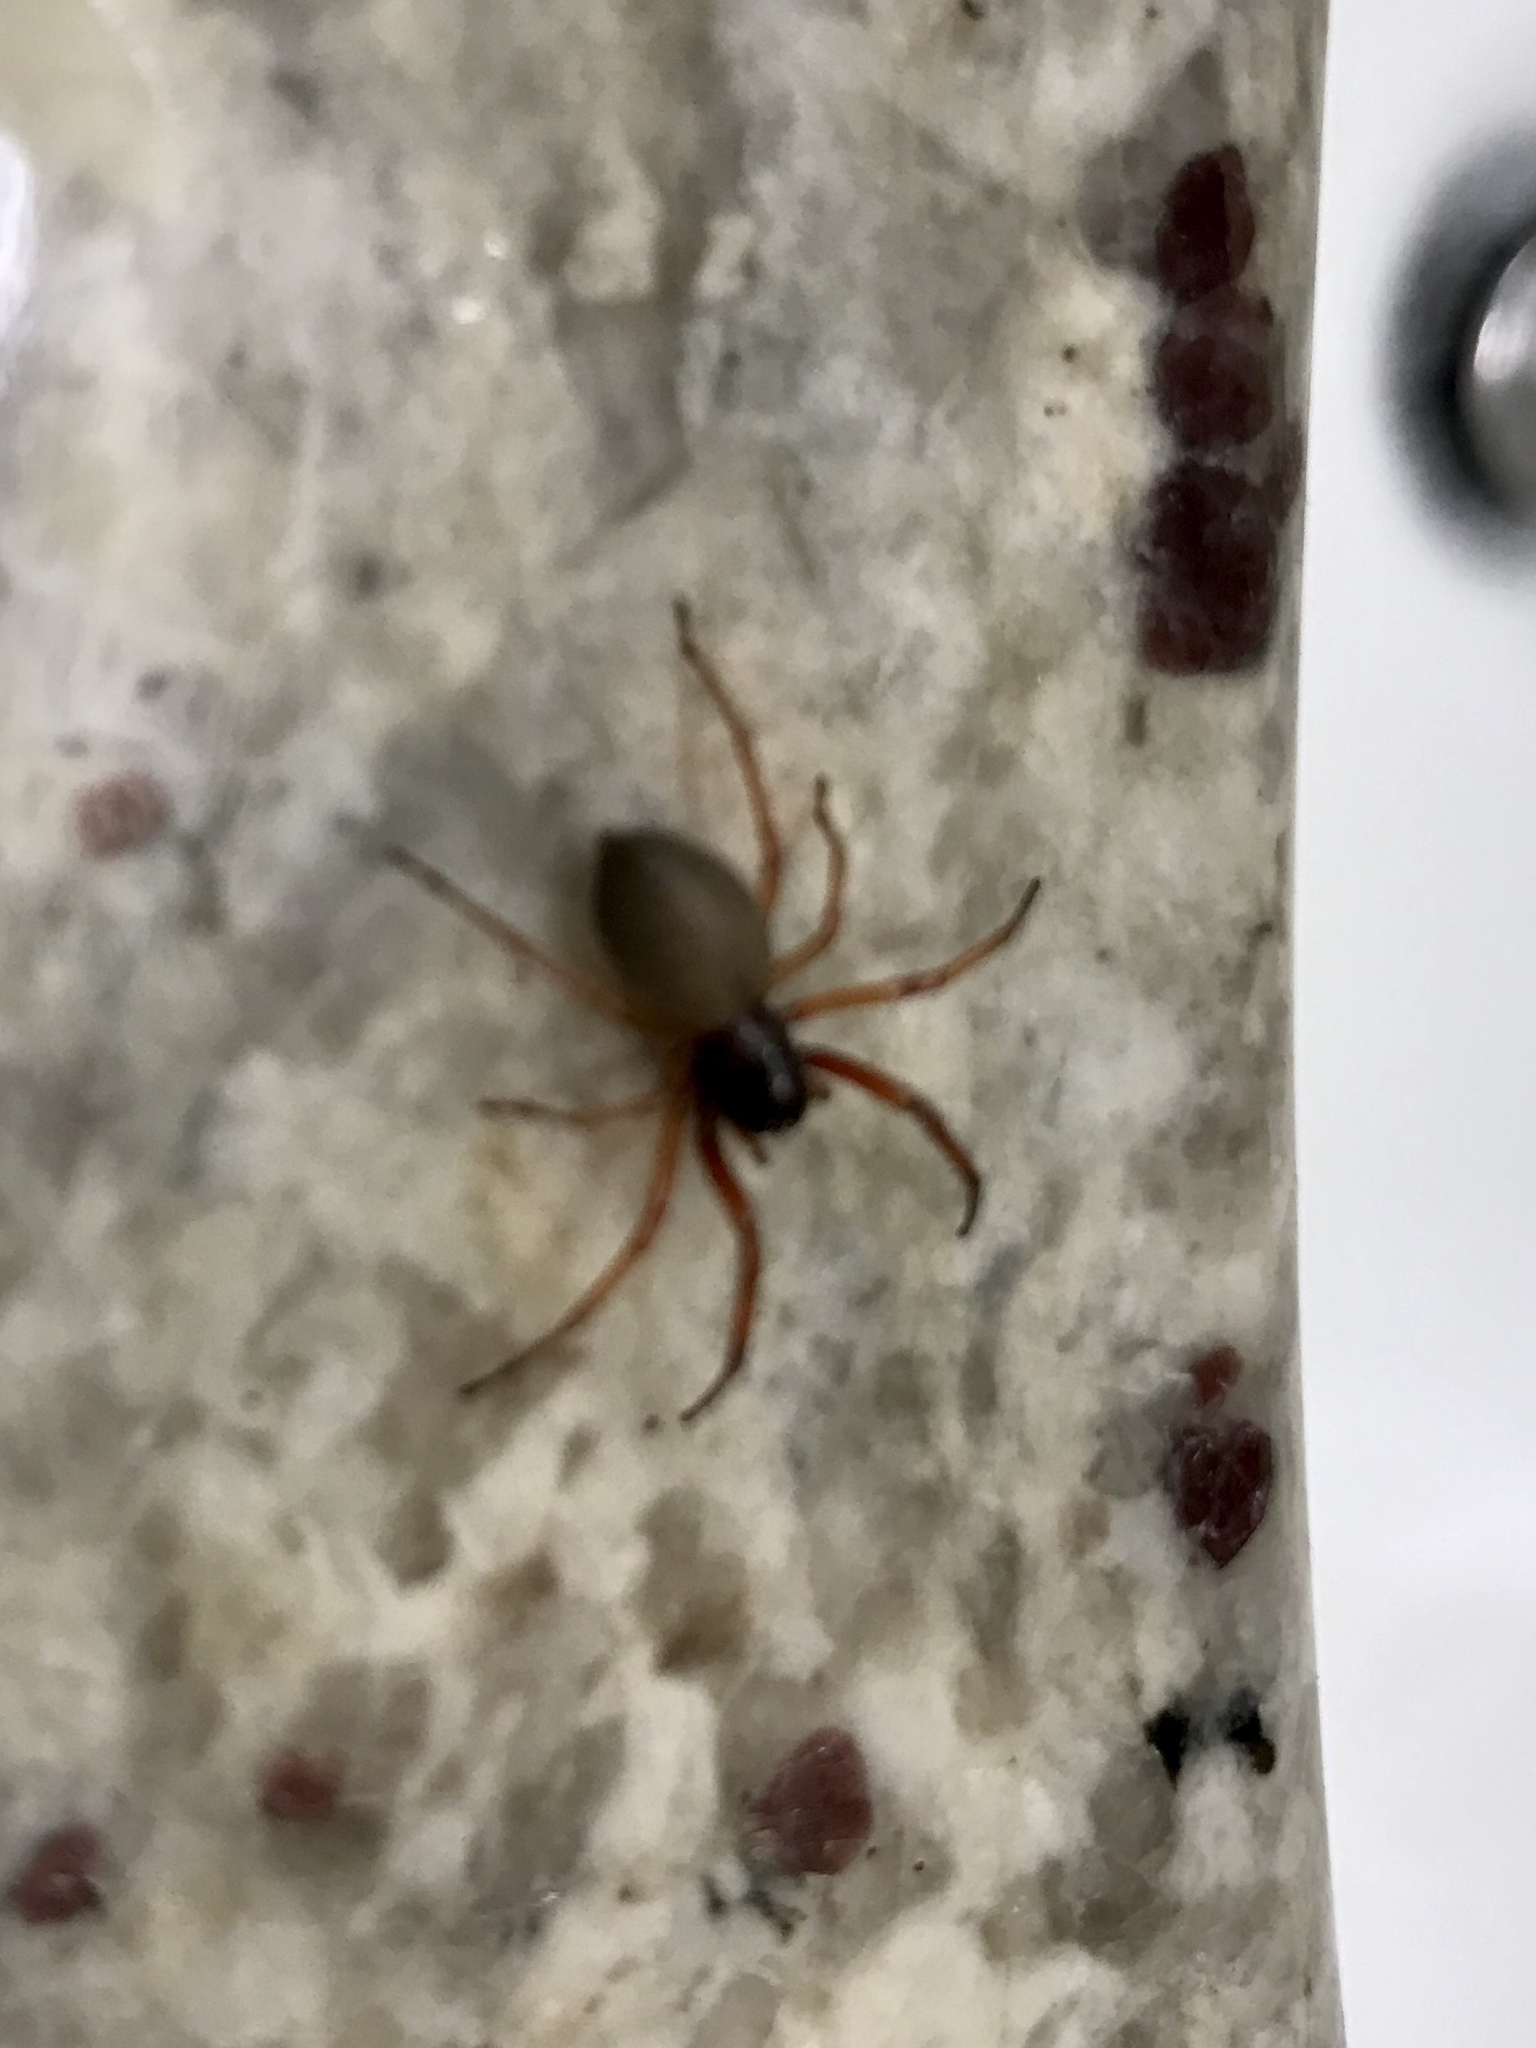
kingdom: Animalia
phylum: Arthropoda
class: Arachnida
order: Araneae
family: Trachelidae
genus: Trachelas
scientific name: Trachelas tranquillus
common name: Broad-faced sac spider
